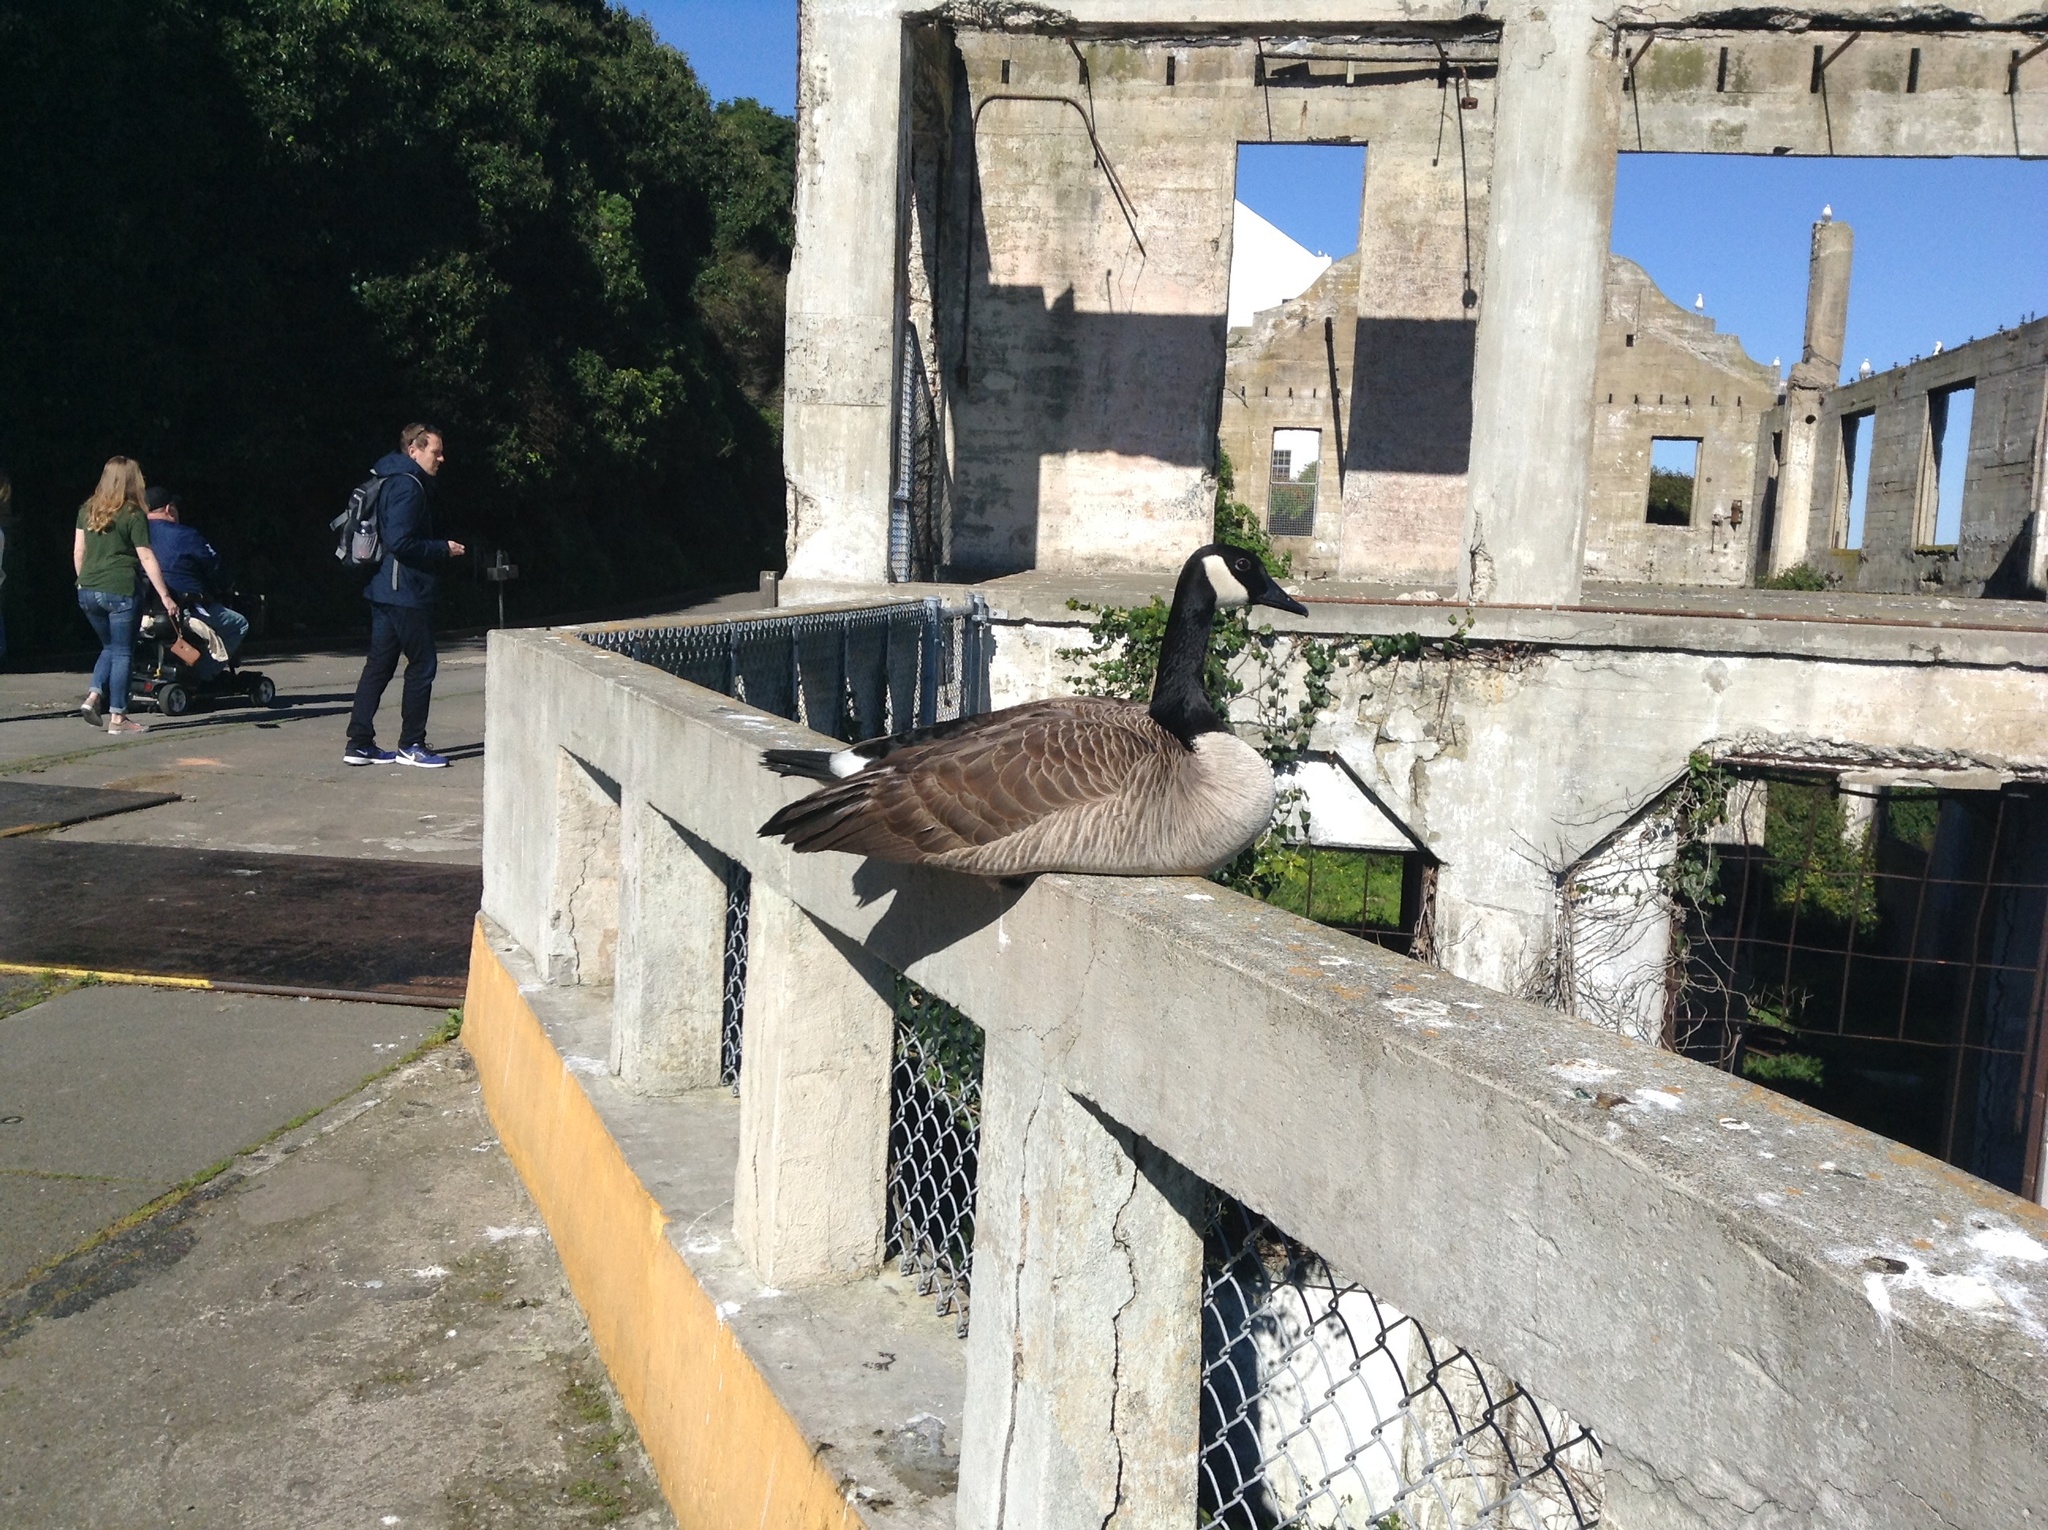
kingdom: Animalia
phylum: Chordata
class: Aves
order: Anseriformes
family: Anatidae
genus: Branta
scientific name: Branta canadensis
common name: Canada goose
